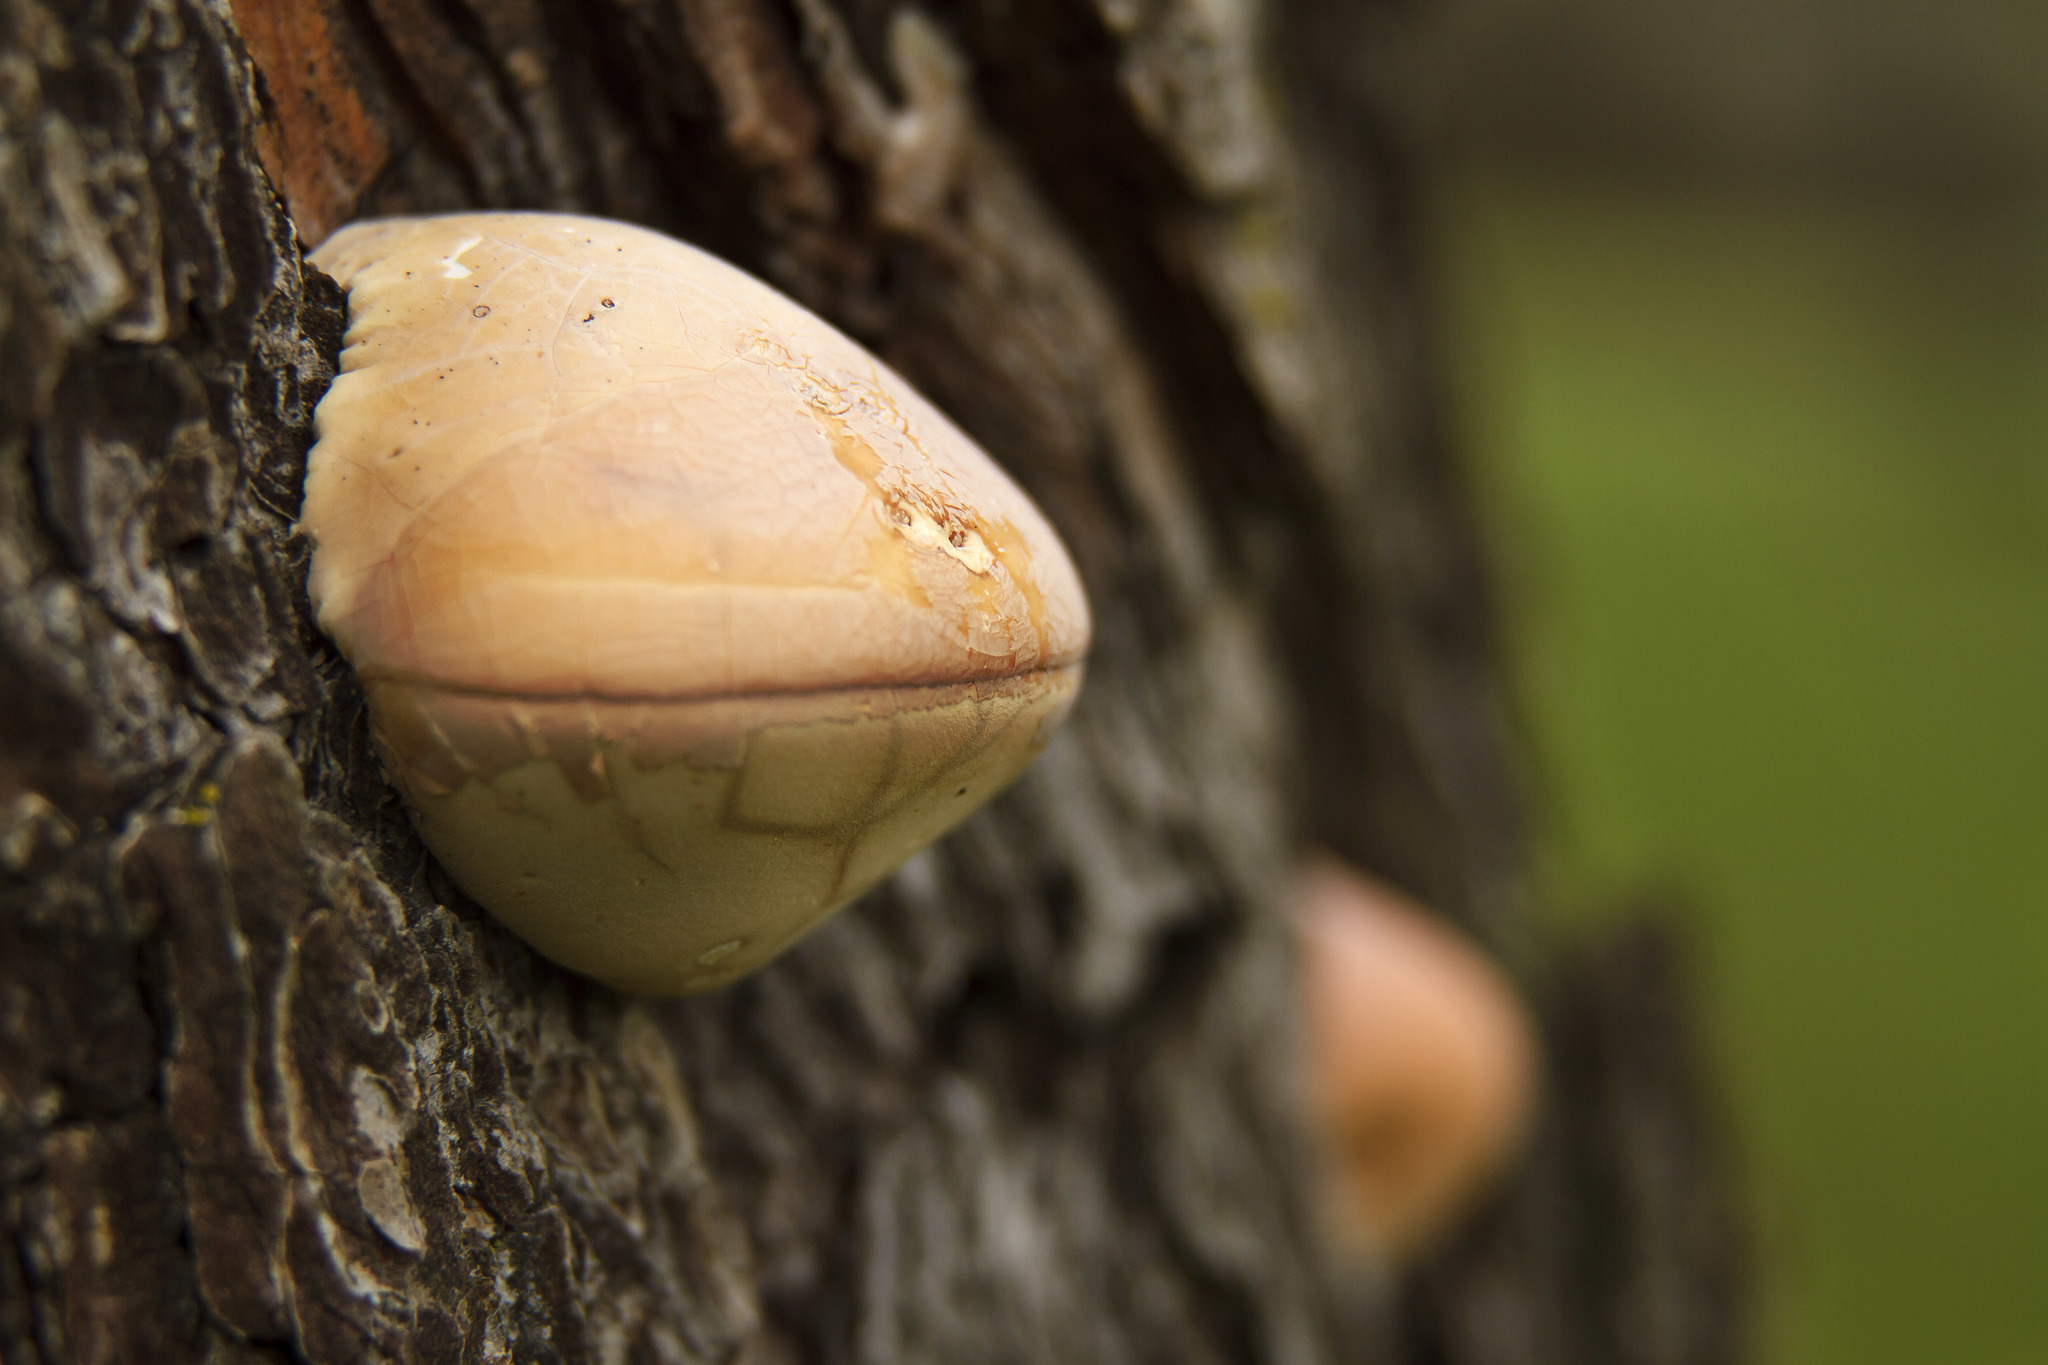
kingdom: Fungi
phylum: Basidiomycota
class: Agaricomycetes
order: Polyporales
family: Polyporaceae
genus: Cryptoporus
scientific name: Cryptoporus volvatus
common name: Veiled polypore
